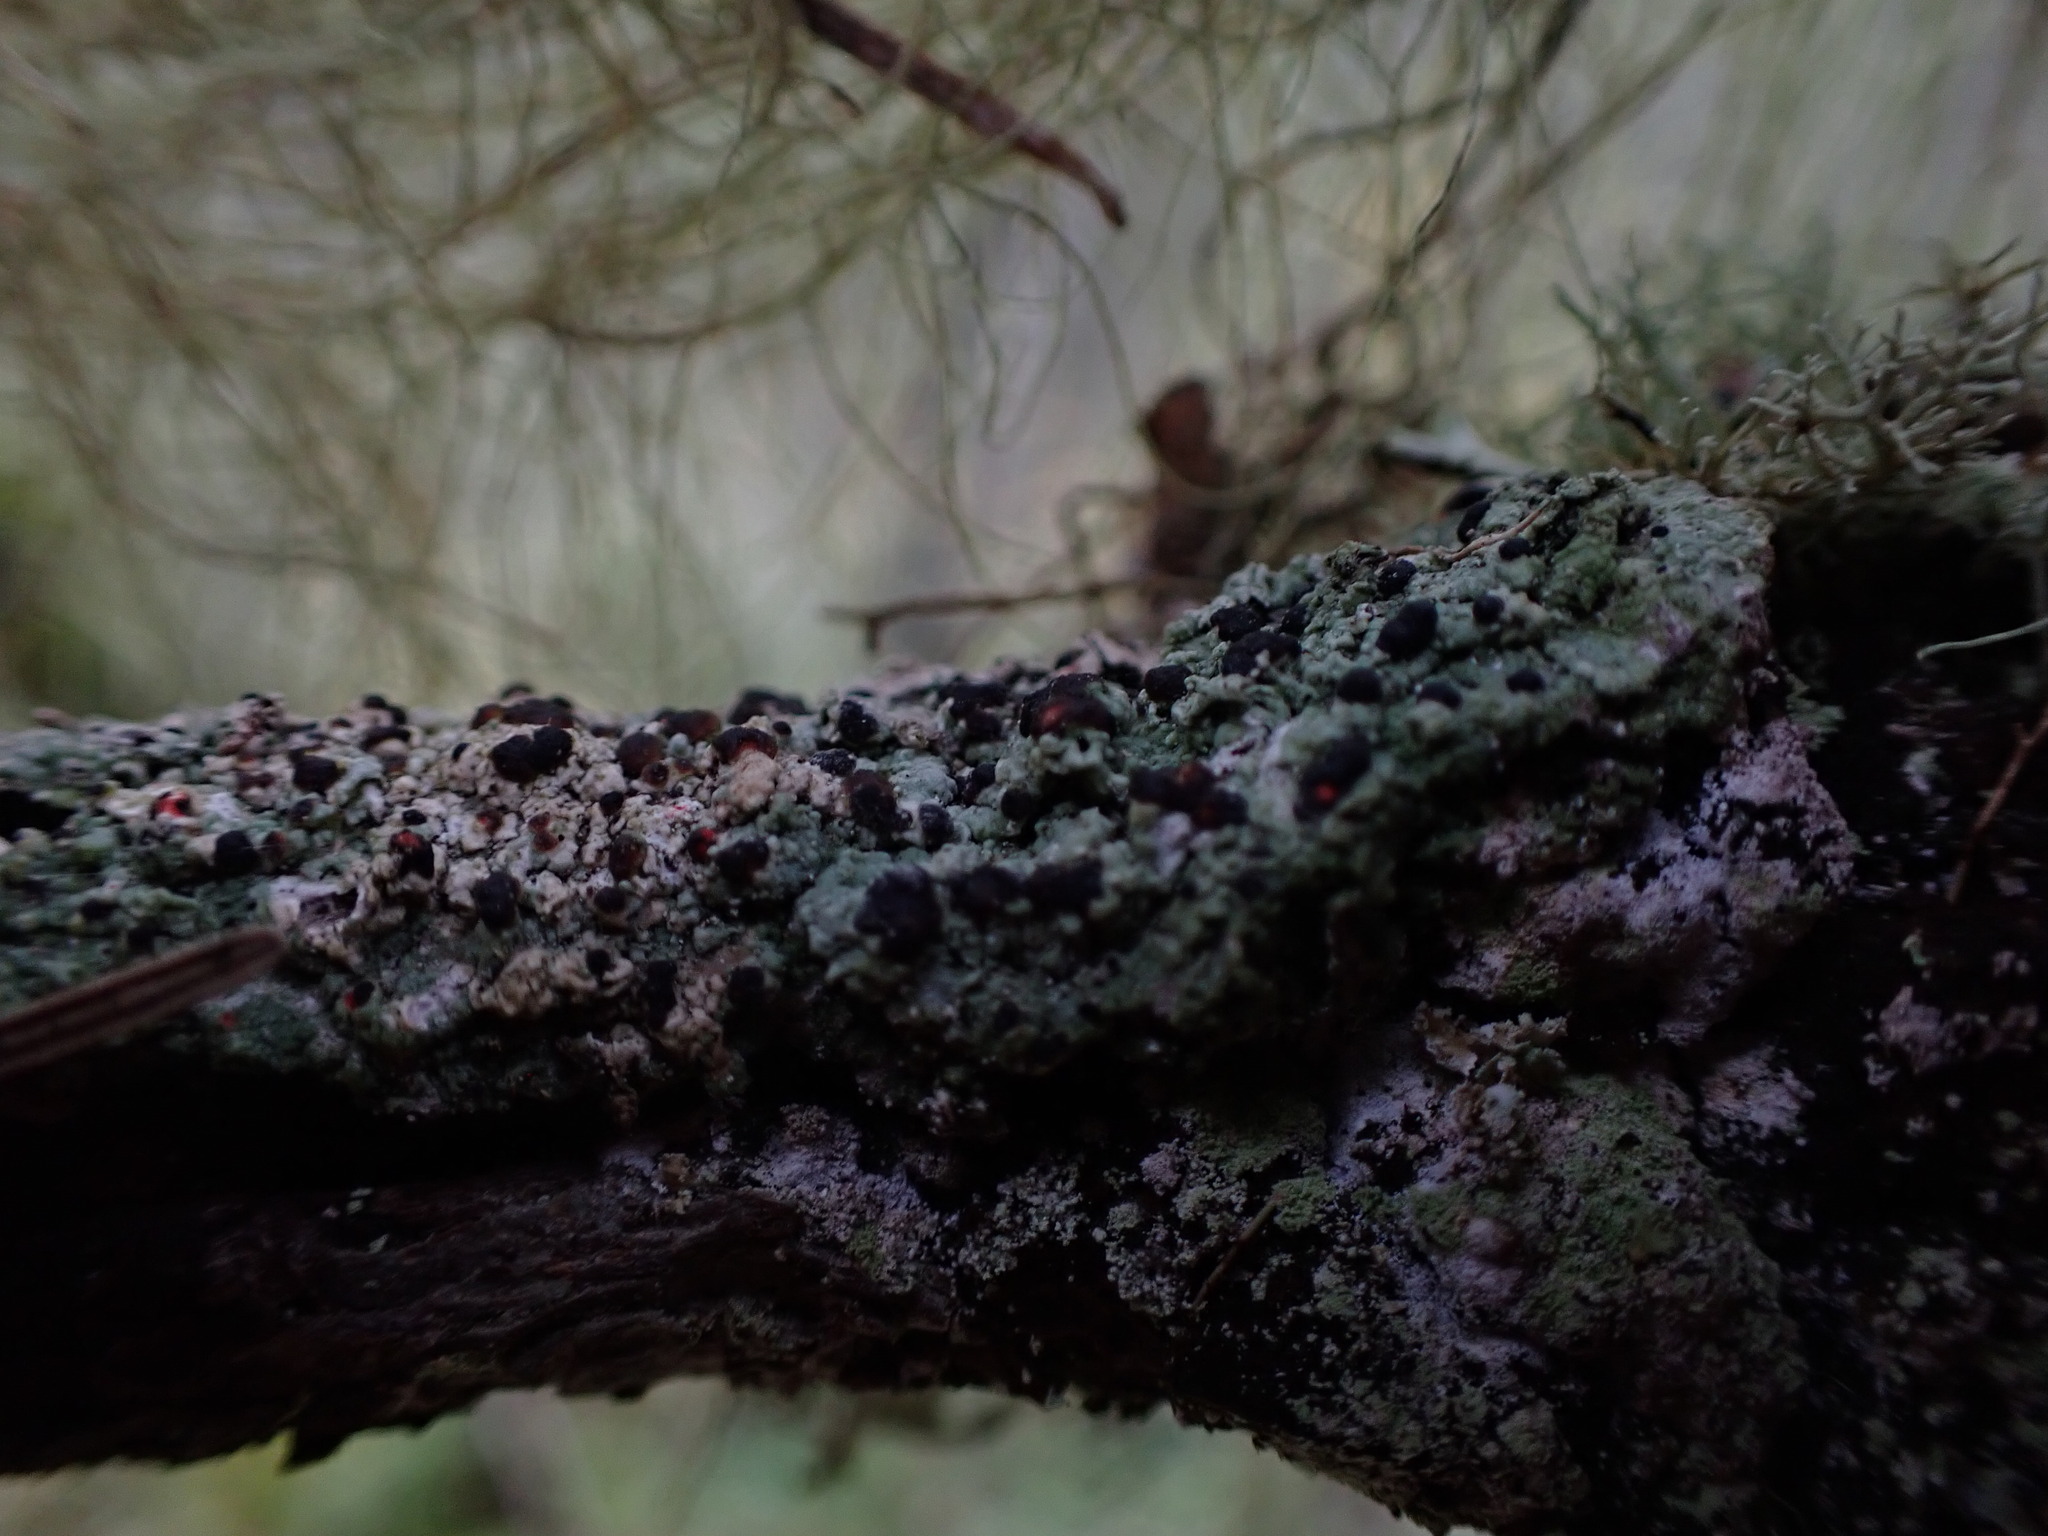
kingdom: Fungi
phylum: Ascomycota
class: Lecanoromycetes
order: Lecanorales
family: Tephromelataceae
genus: Mycoblastus
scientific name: Mycoblastus sanguinarius
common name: Bloody-heart lichen
